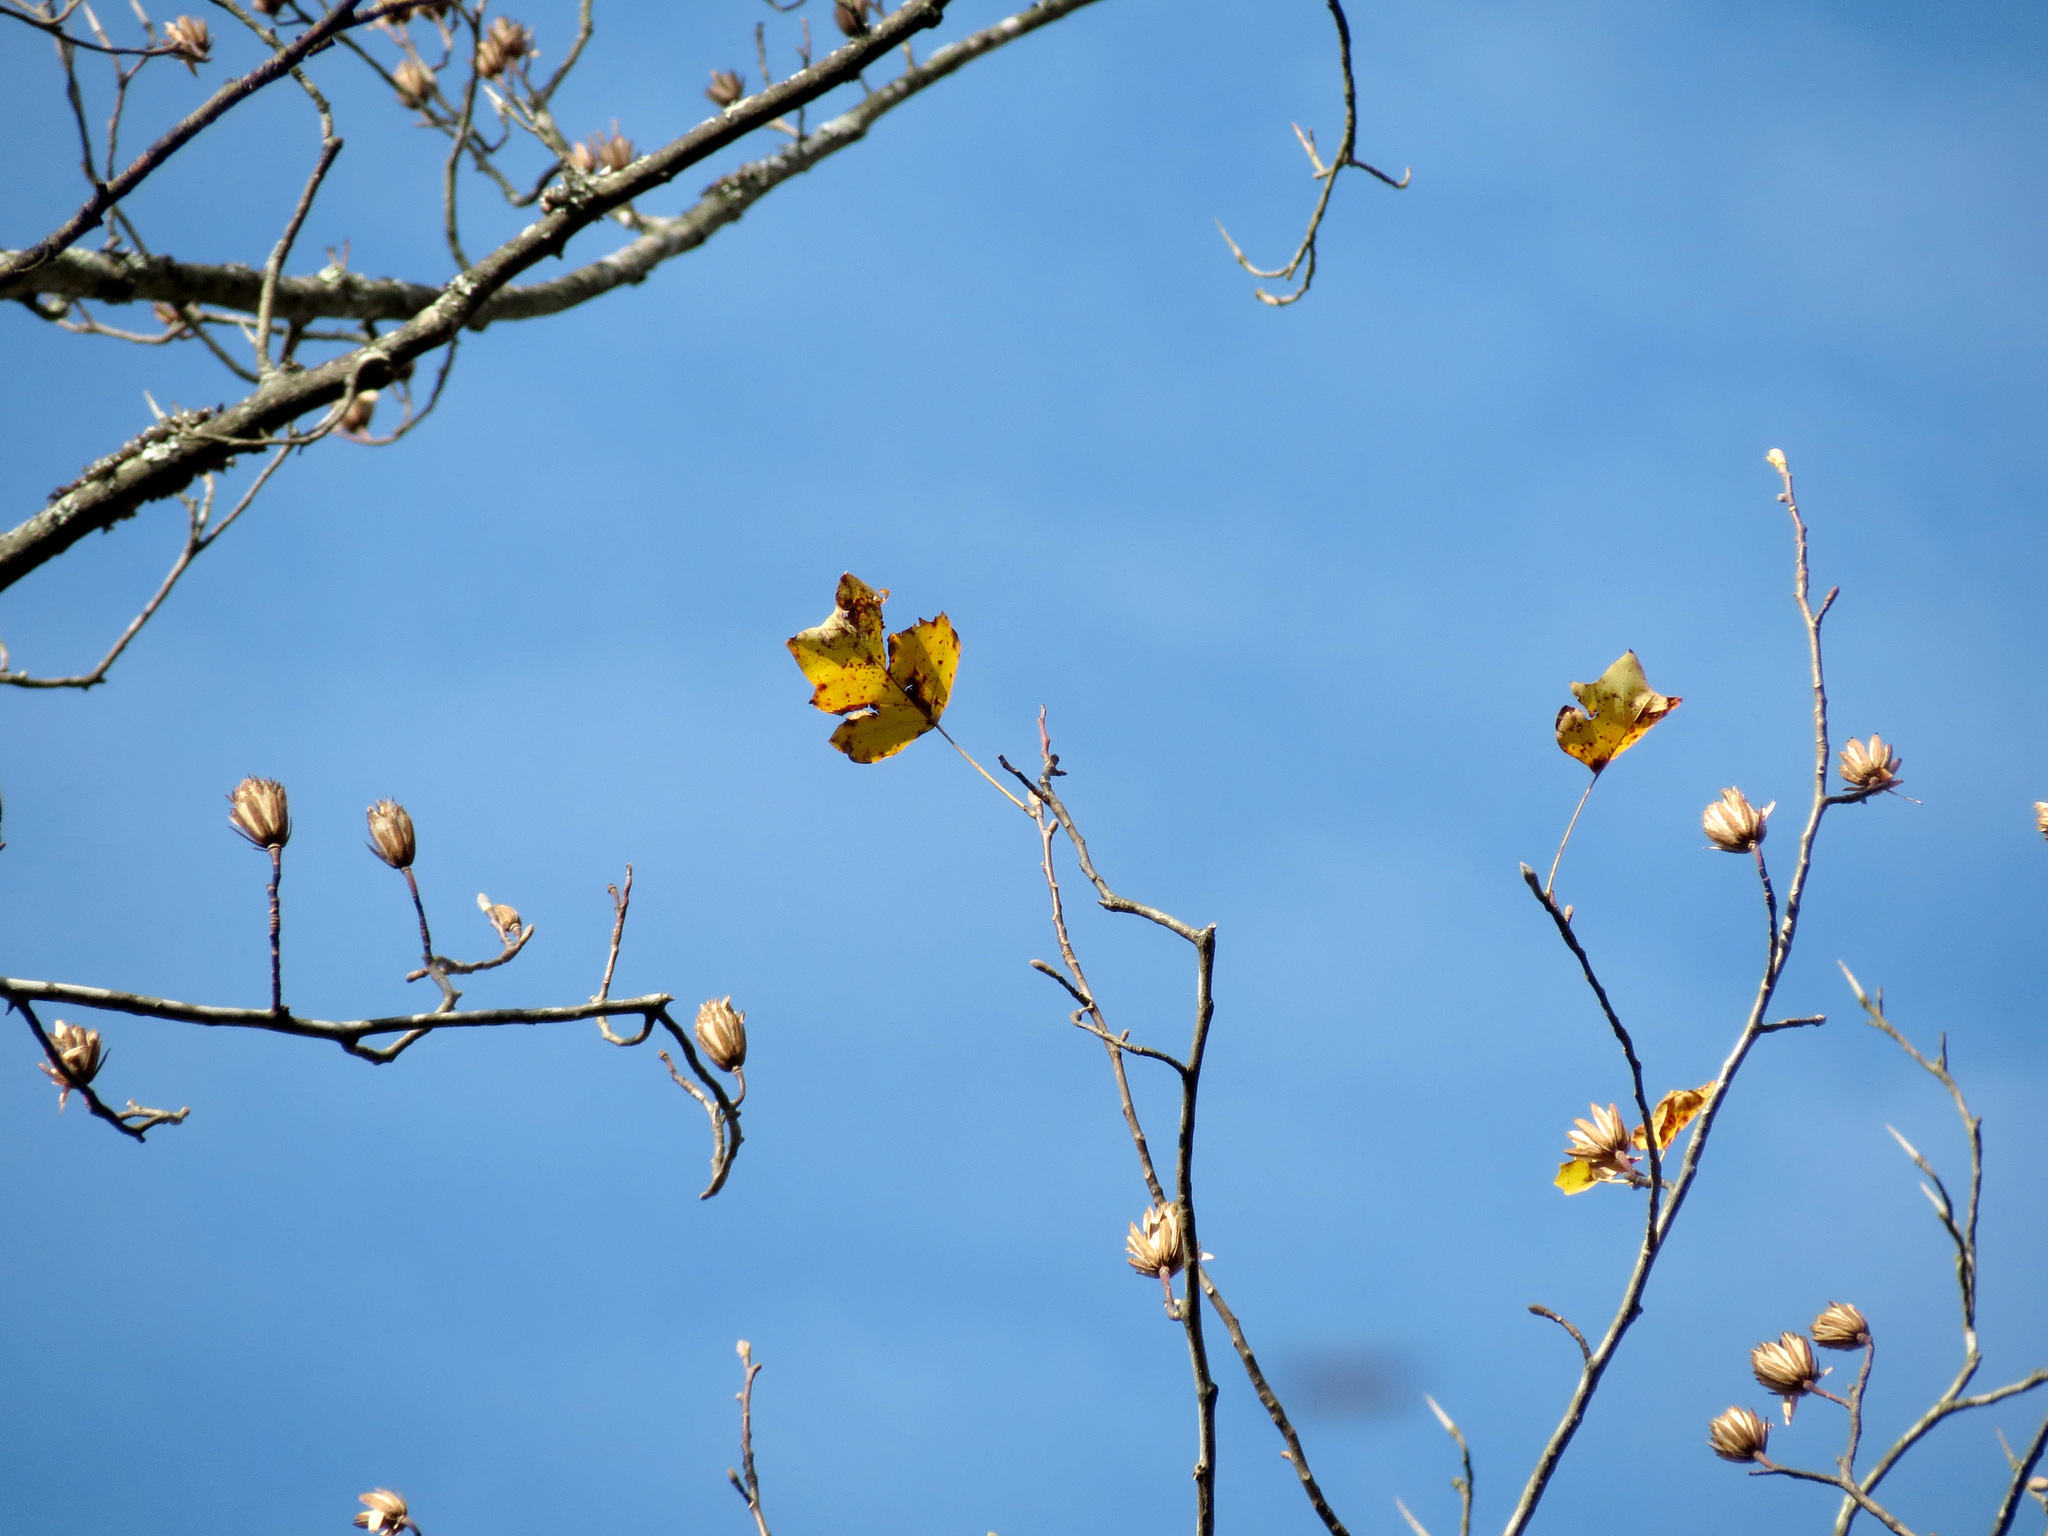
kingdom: Plantae
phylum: Tracheophyta
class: Magnoliopsida
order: Magnoliales
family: Magnoliaceae
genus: Liriodendron
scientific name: Liriodendron tulipifera
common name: Tulip tree
